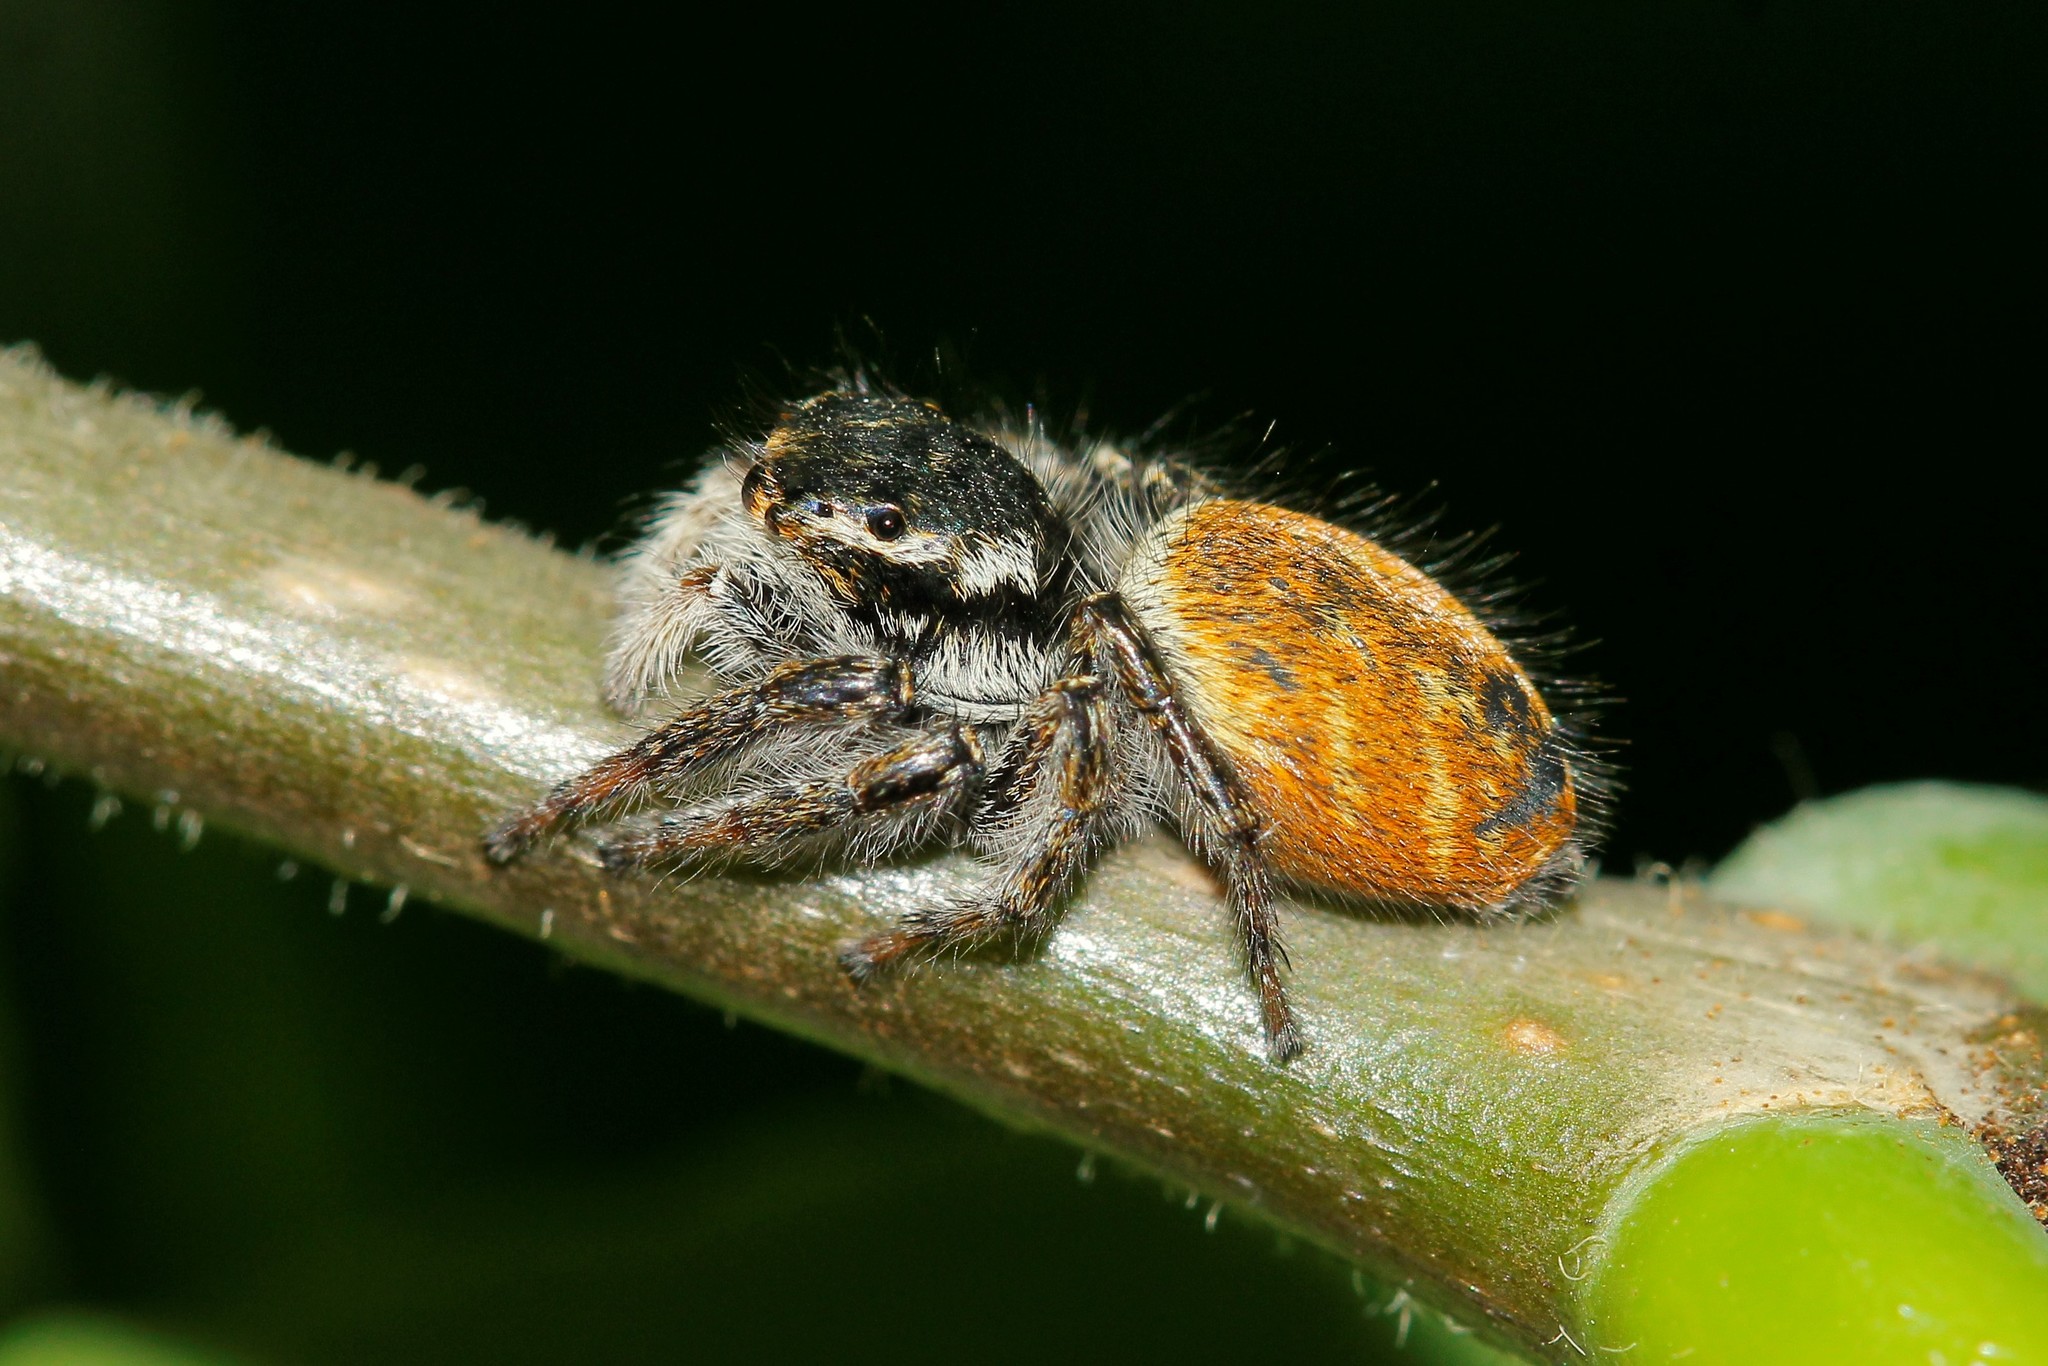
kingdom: Animalia
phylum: Arthropoda
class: Arachnida
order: Araneae
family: Salticidae
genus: Carrhotus
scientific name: Carrhotus xanthogramma
